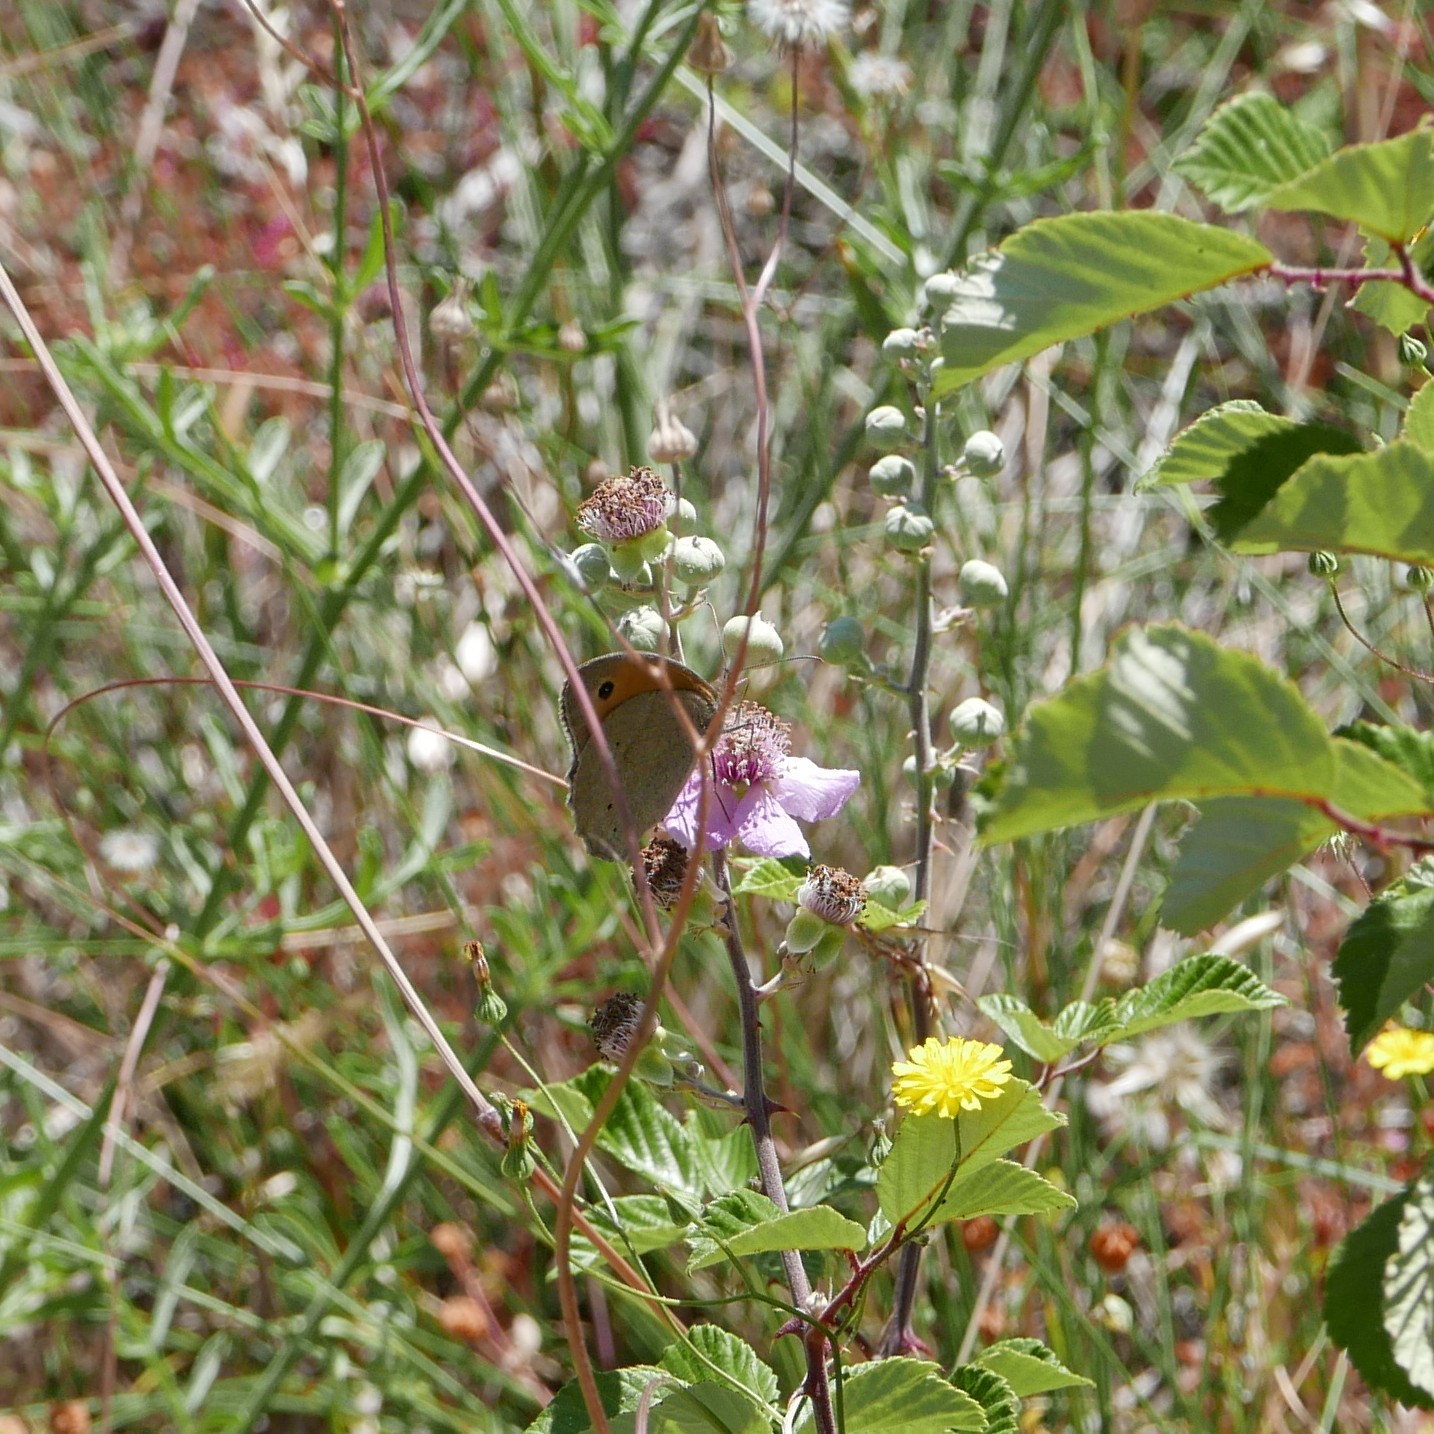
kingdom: Animalia
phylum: Arthropoda
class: Insecta
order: Lepidoptera
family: Nymphalidae
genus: Maniola
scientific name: Maniola jurtina
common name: Meadow brown
